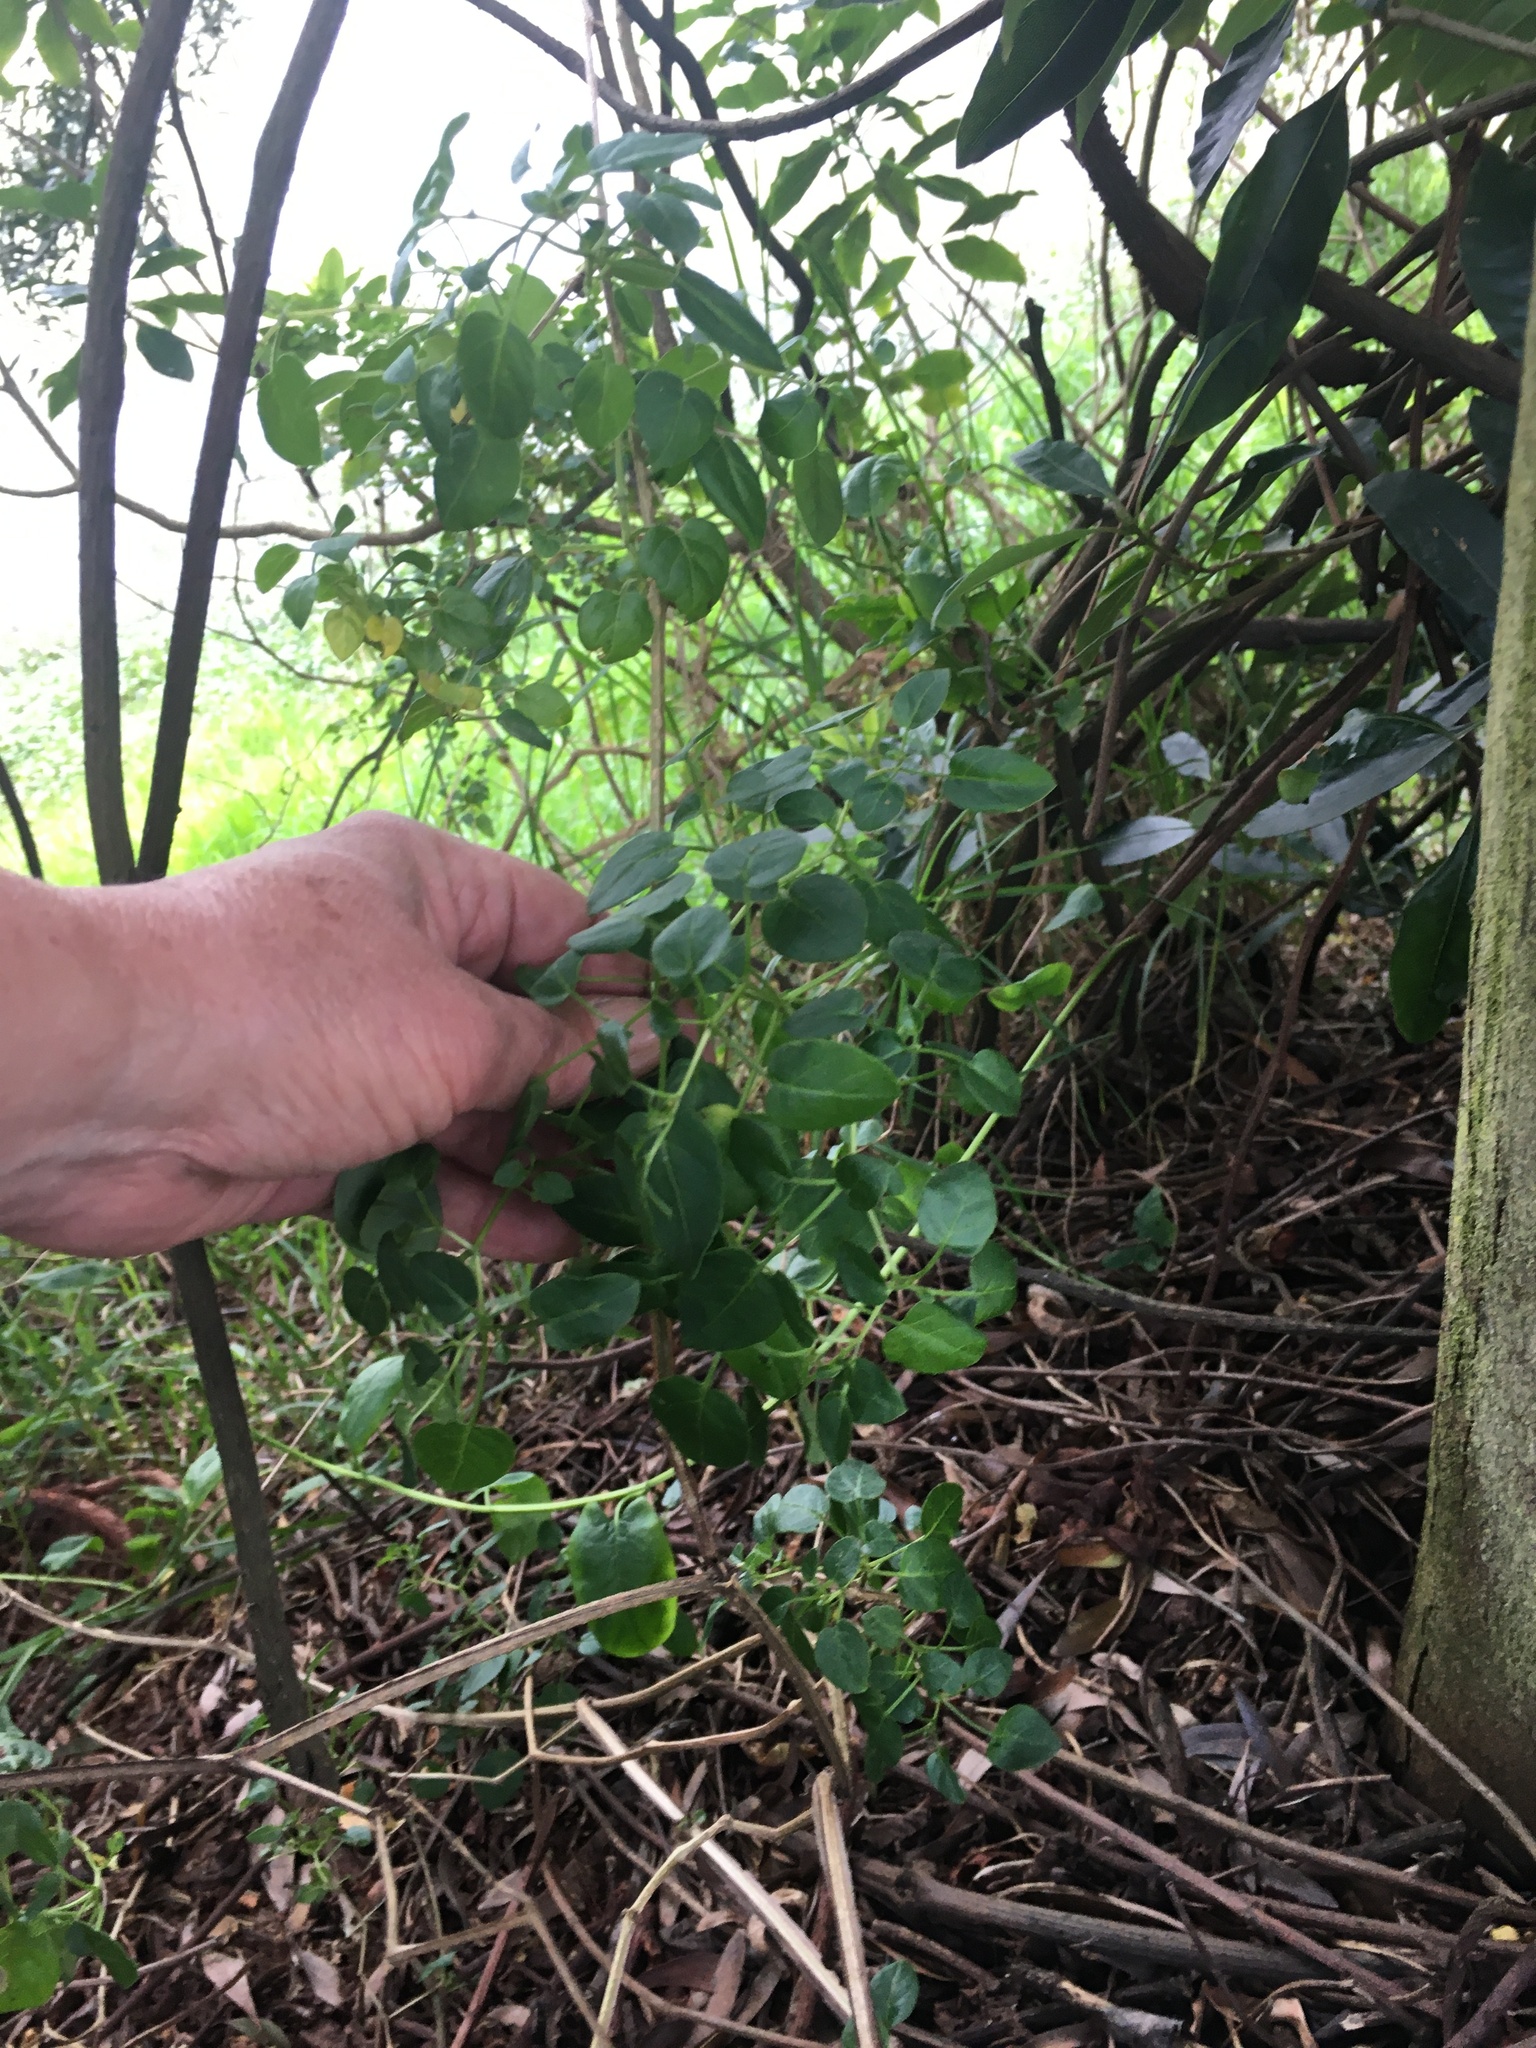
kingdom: Plantae
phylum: Tracheophyta
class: Magnoliopsida
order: Solanales
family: Solanaceae
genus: Salpichroa
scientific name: Salpichroa tristis
